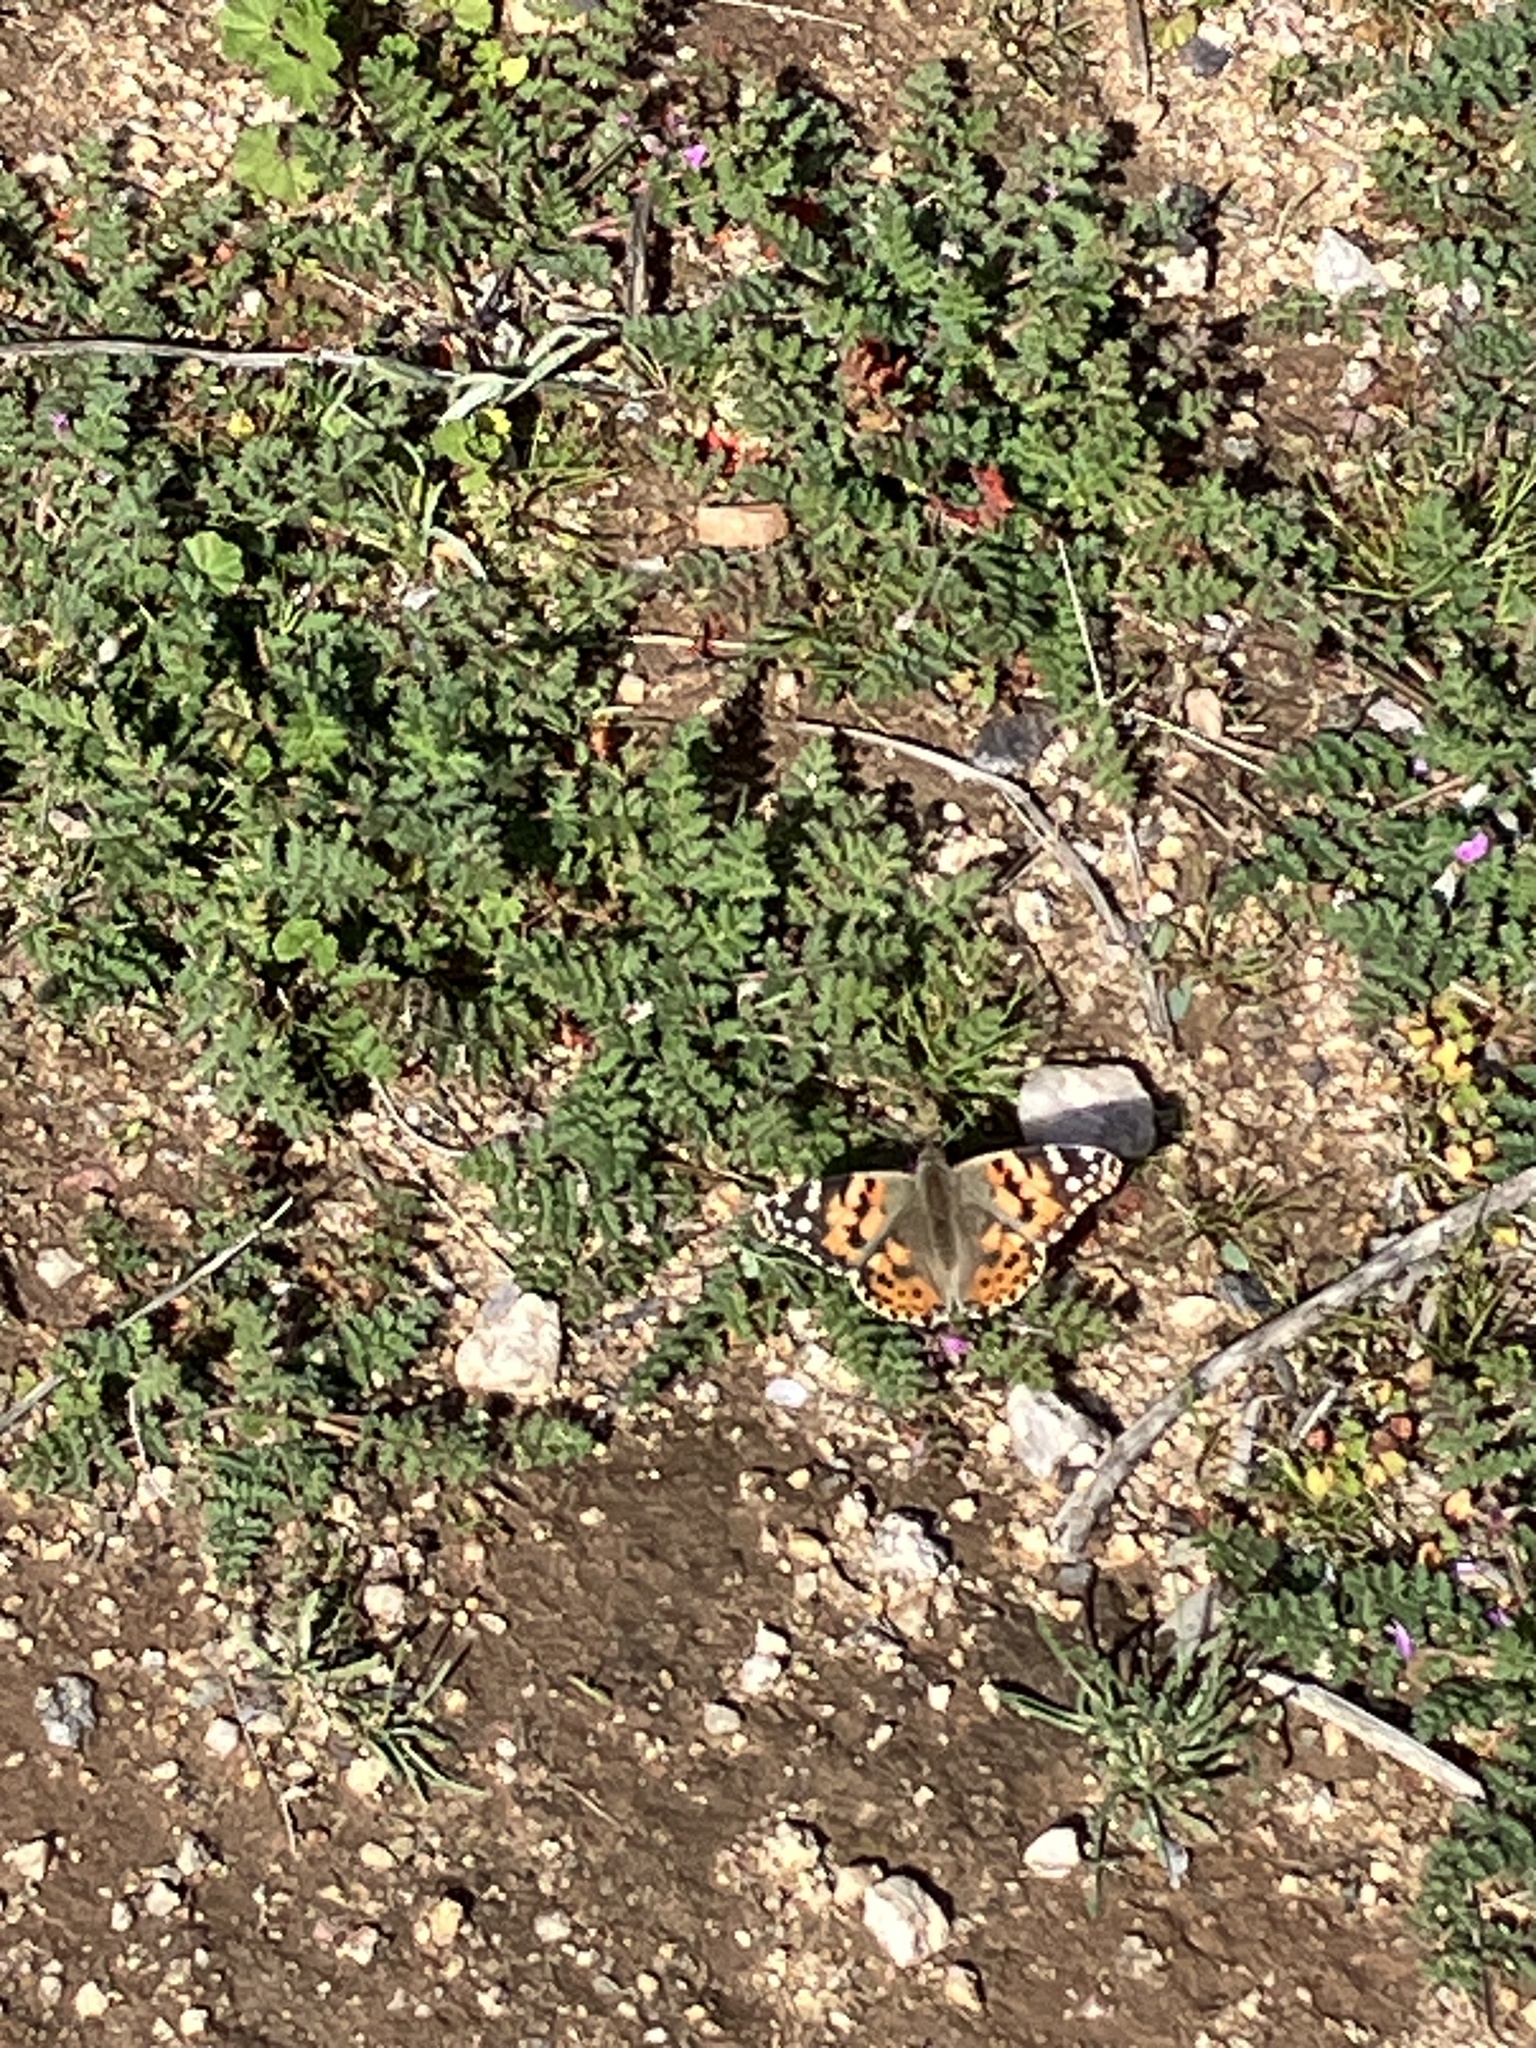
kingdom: Animalia
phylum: Arthropoda
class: Insecta
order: Lepidoptera
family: Nymphalidae
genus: Vanessa
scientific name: Vanessa cardui
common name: Painted lady
